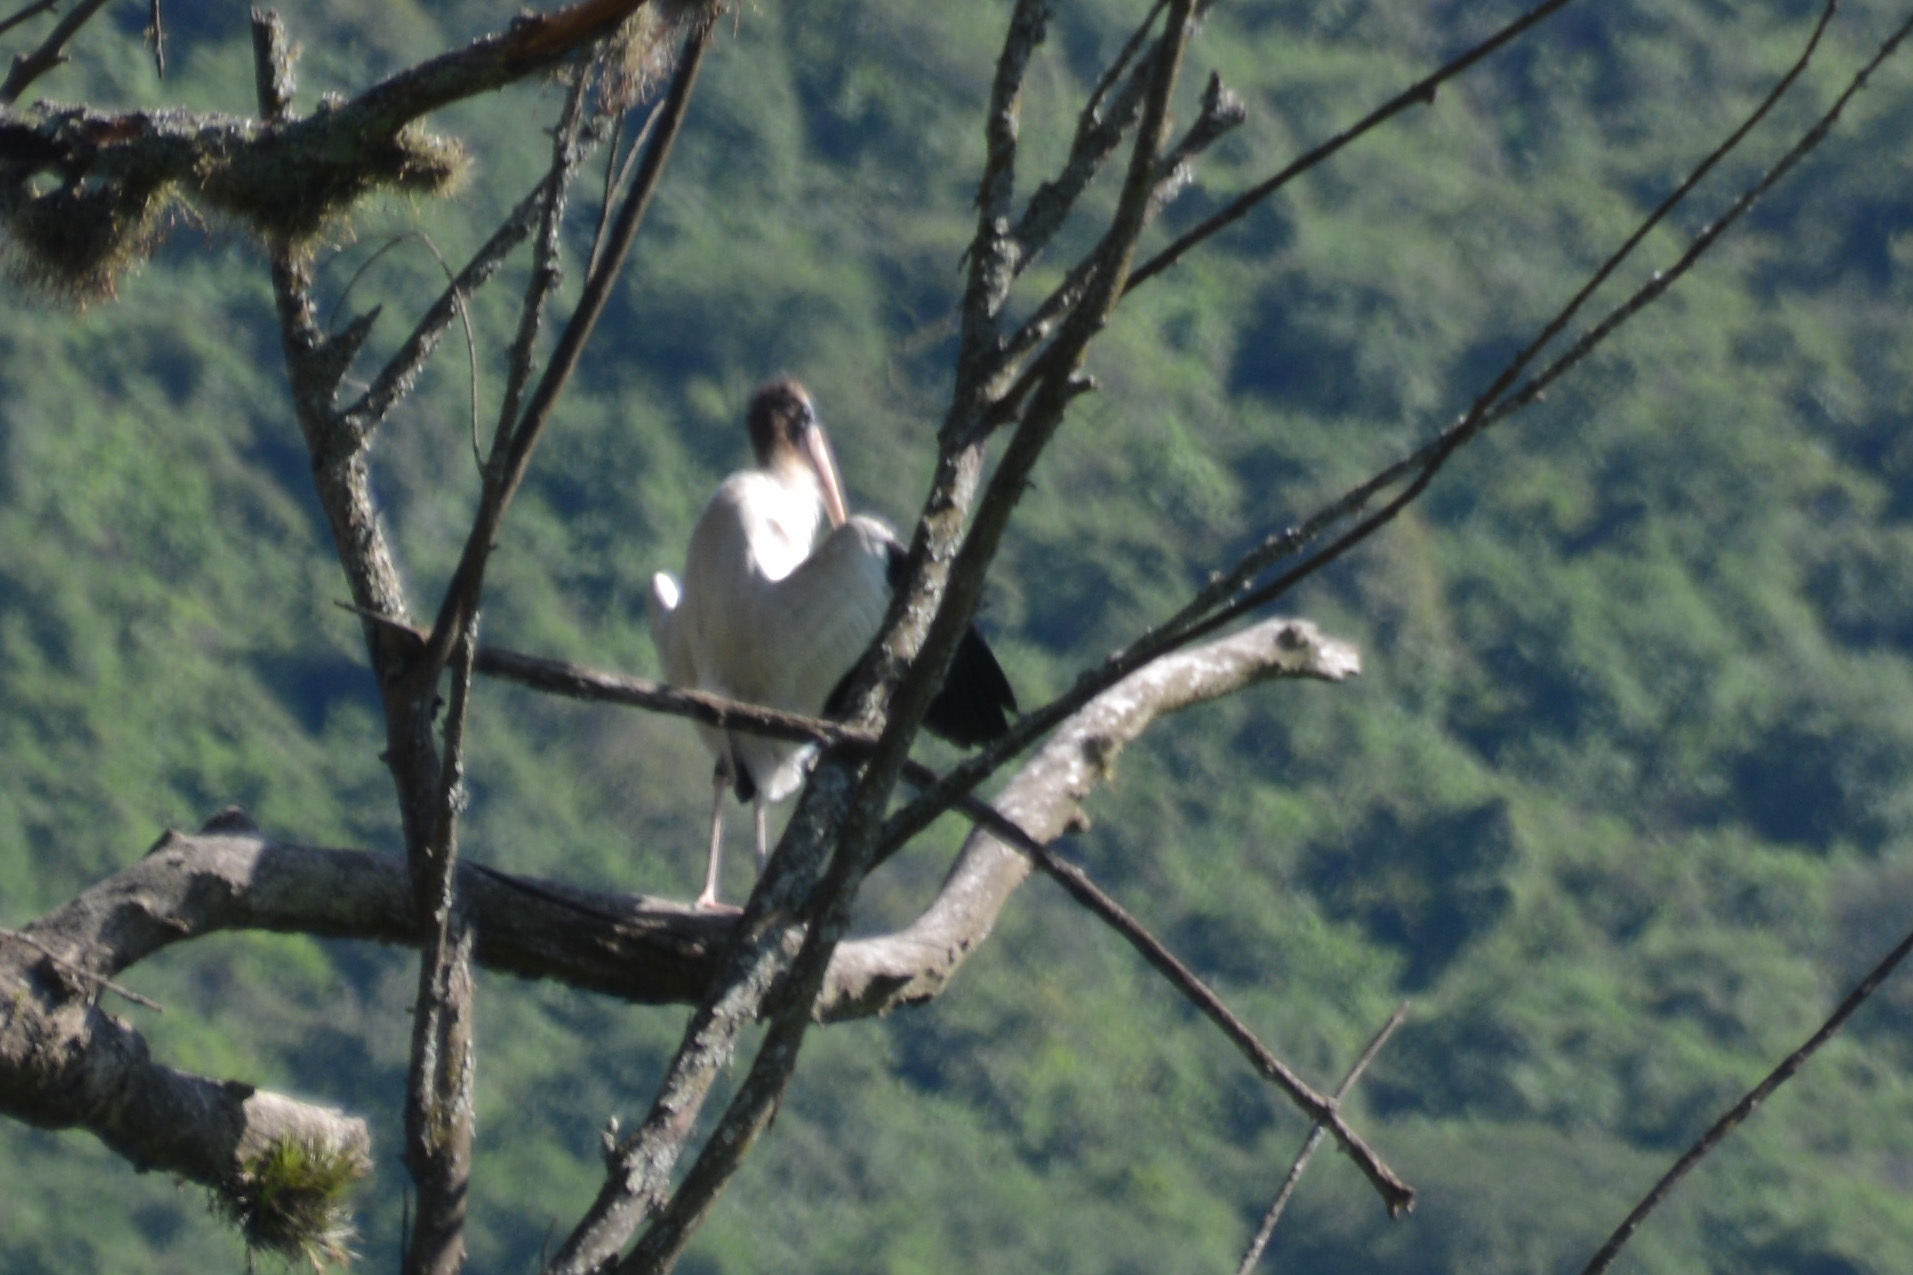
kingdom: Animalia
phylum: Chordata
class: Aves
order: Ciconiiformes
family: Ciconiidae
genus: Mycteria
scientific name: Mycteria americana
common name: Wood stork
